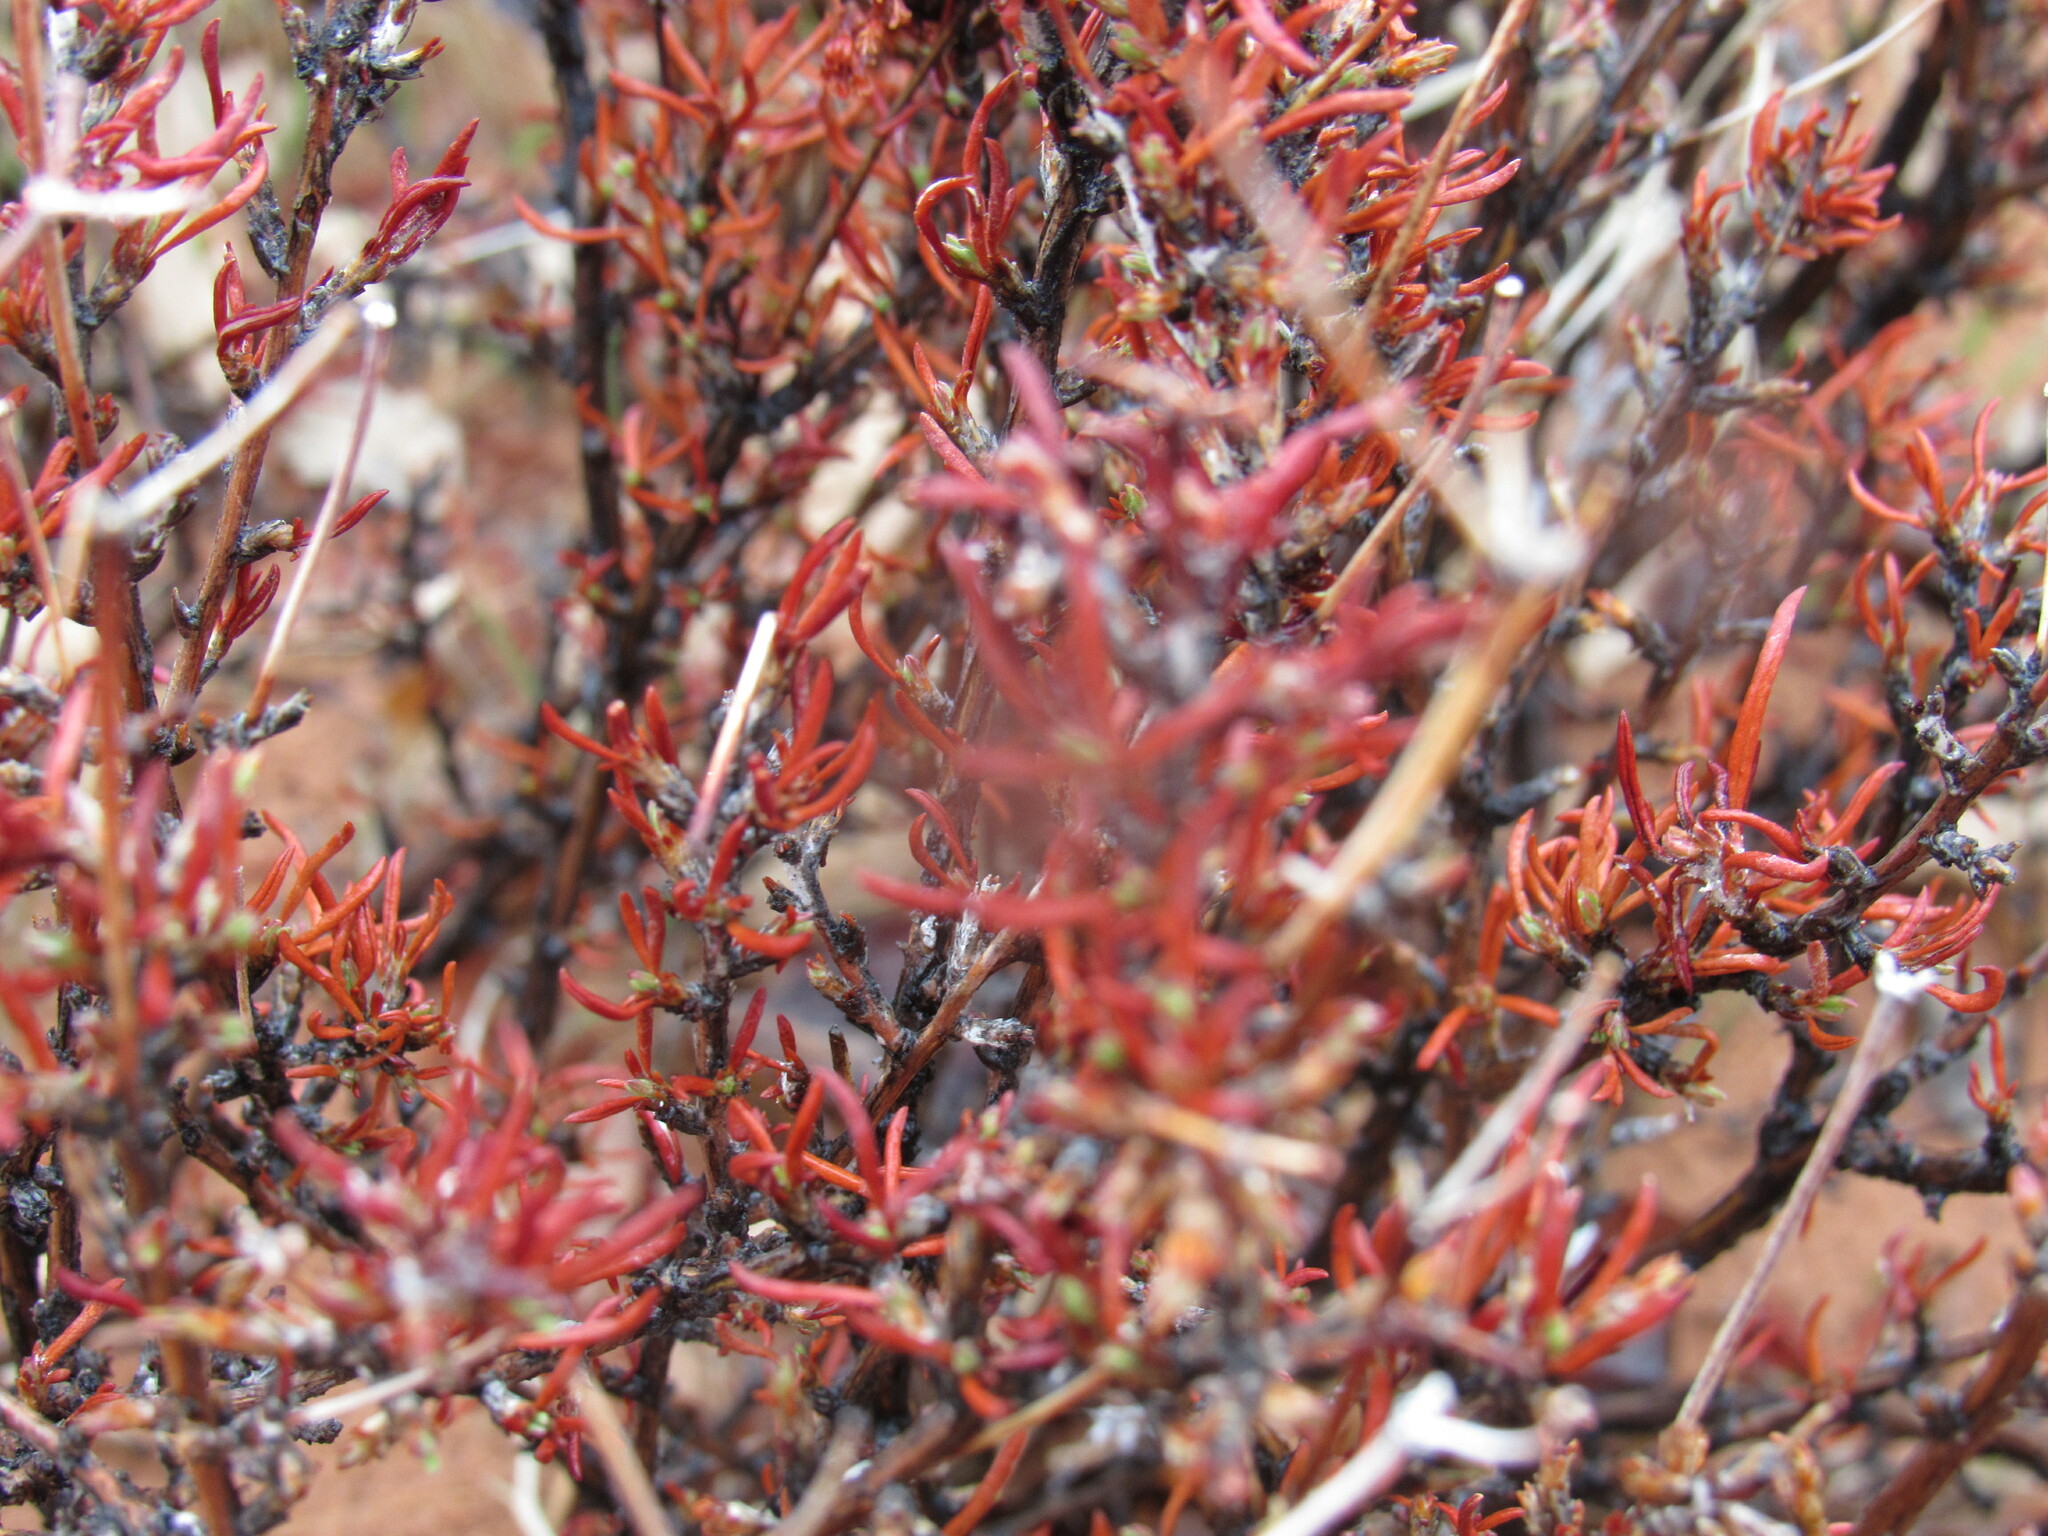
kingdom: Plantae
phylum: Tracheophyta
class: Magnoliopsida
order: Rosales
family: Rosaceae
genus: Cercocarpus
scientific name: Cercocarpus intricatus
